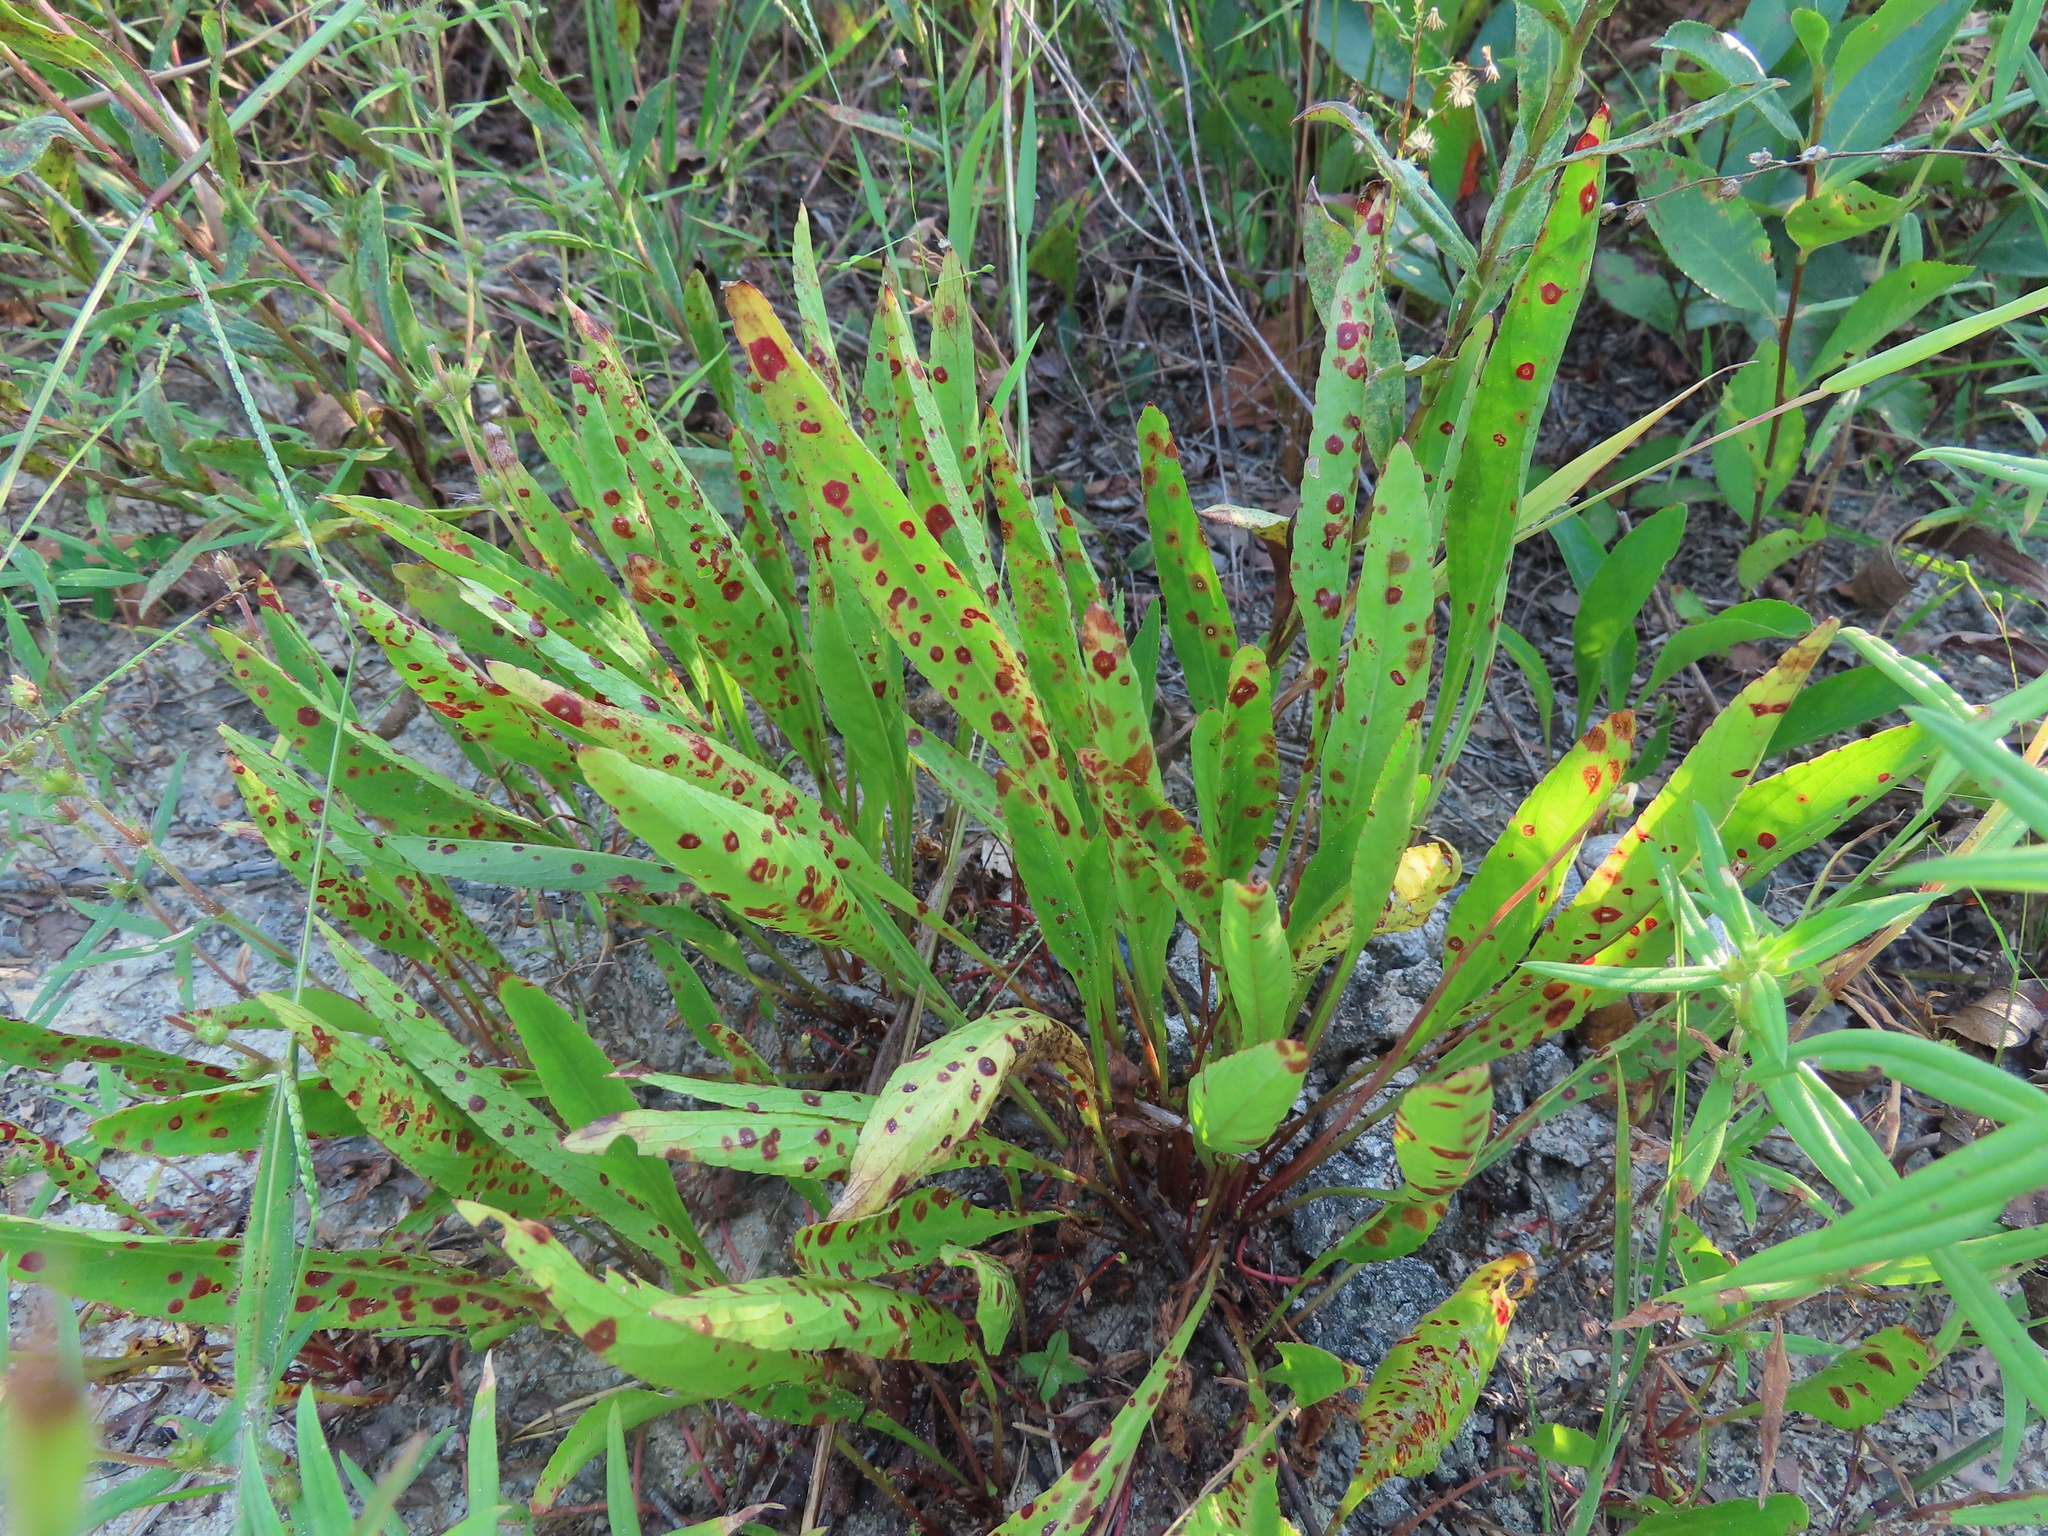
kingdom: Plantae
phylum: Tracheophyta
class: Magnoliopsida
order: Malpighiales
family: Violaceae
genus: Viola
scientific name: Viola lanceolata
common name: Bog white violet
